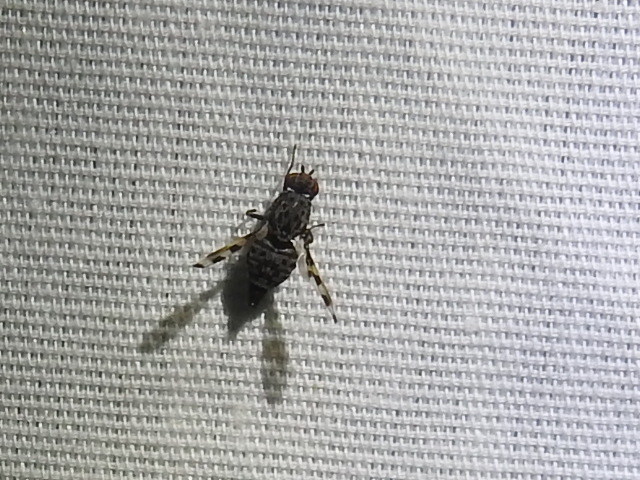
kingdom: Animalia
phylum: Arthropoda
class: Insecta
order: Diptera
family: Ulidiidae
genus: Pseudotephritis
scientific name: Pseudotephritis vau
